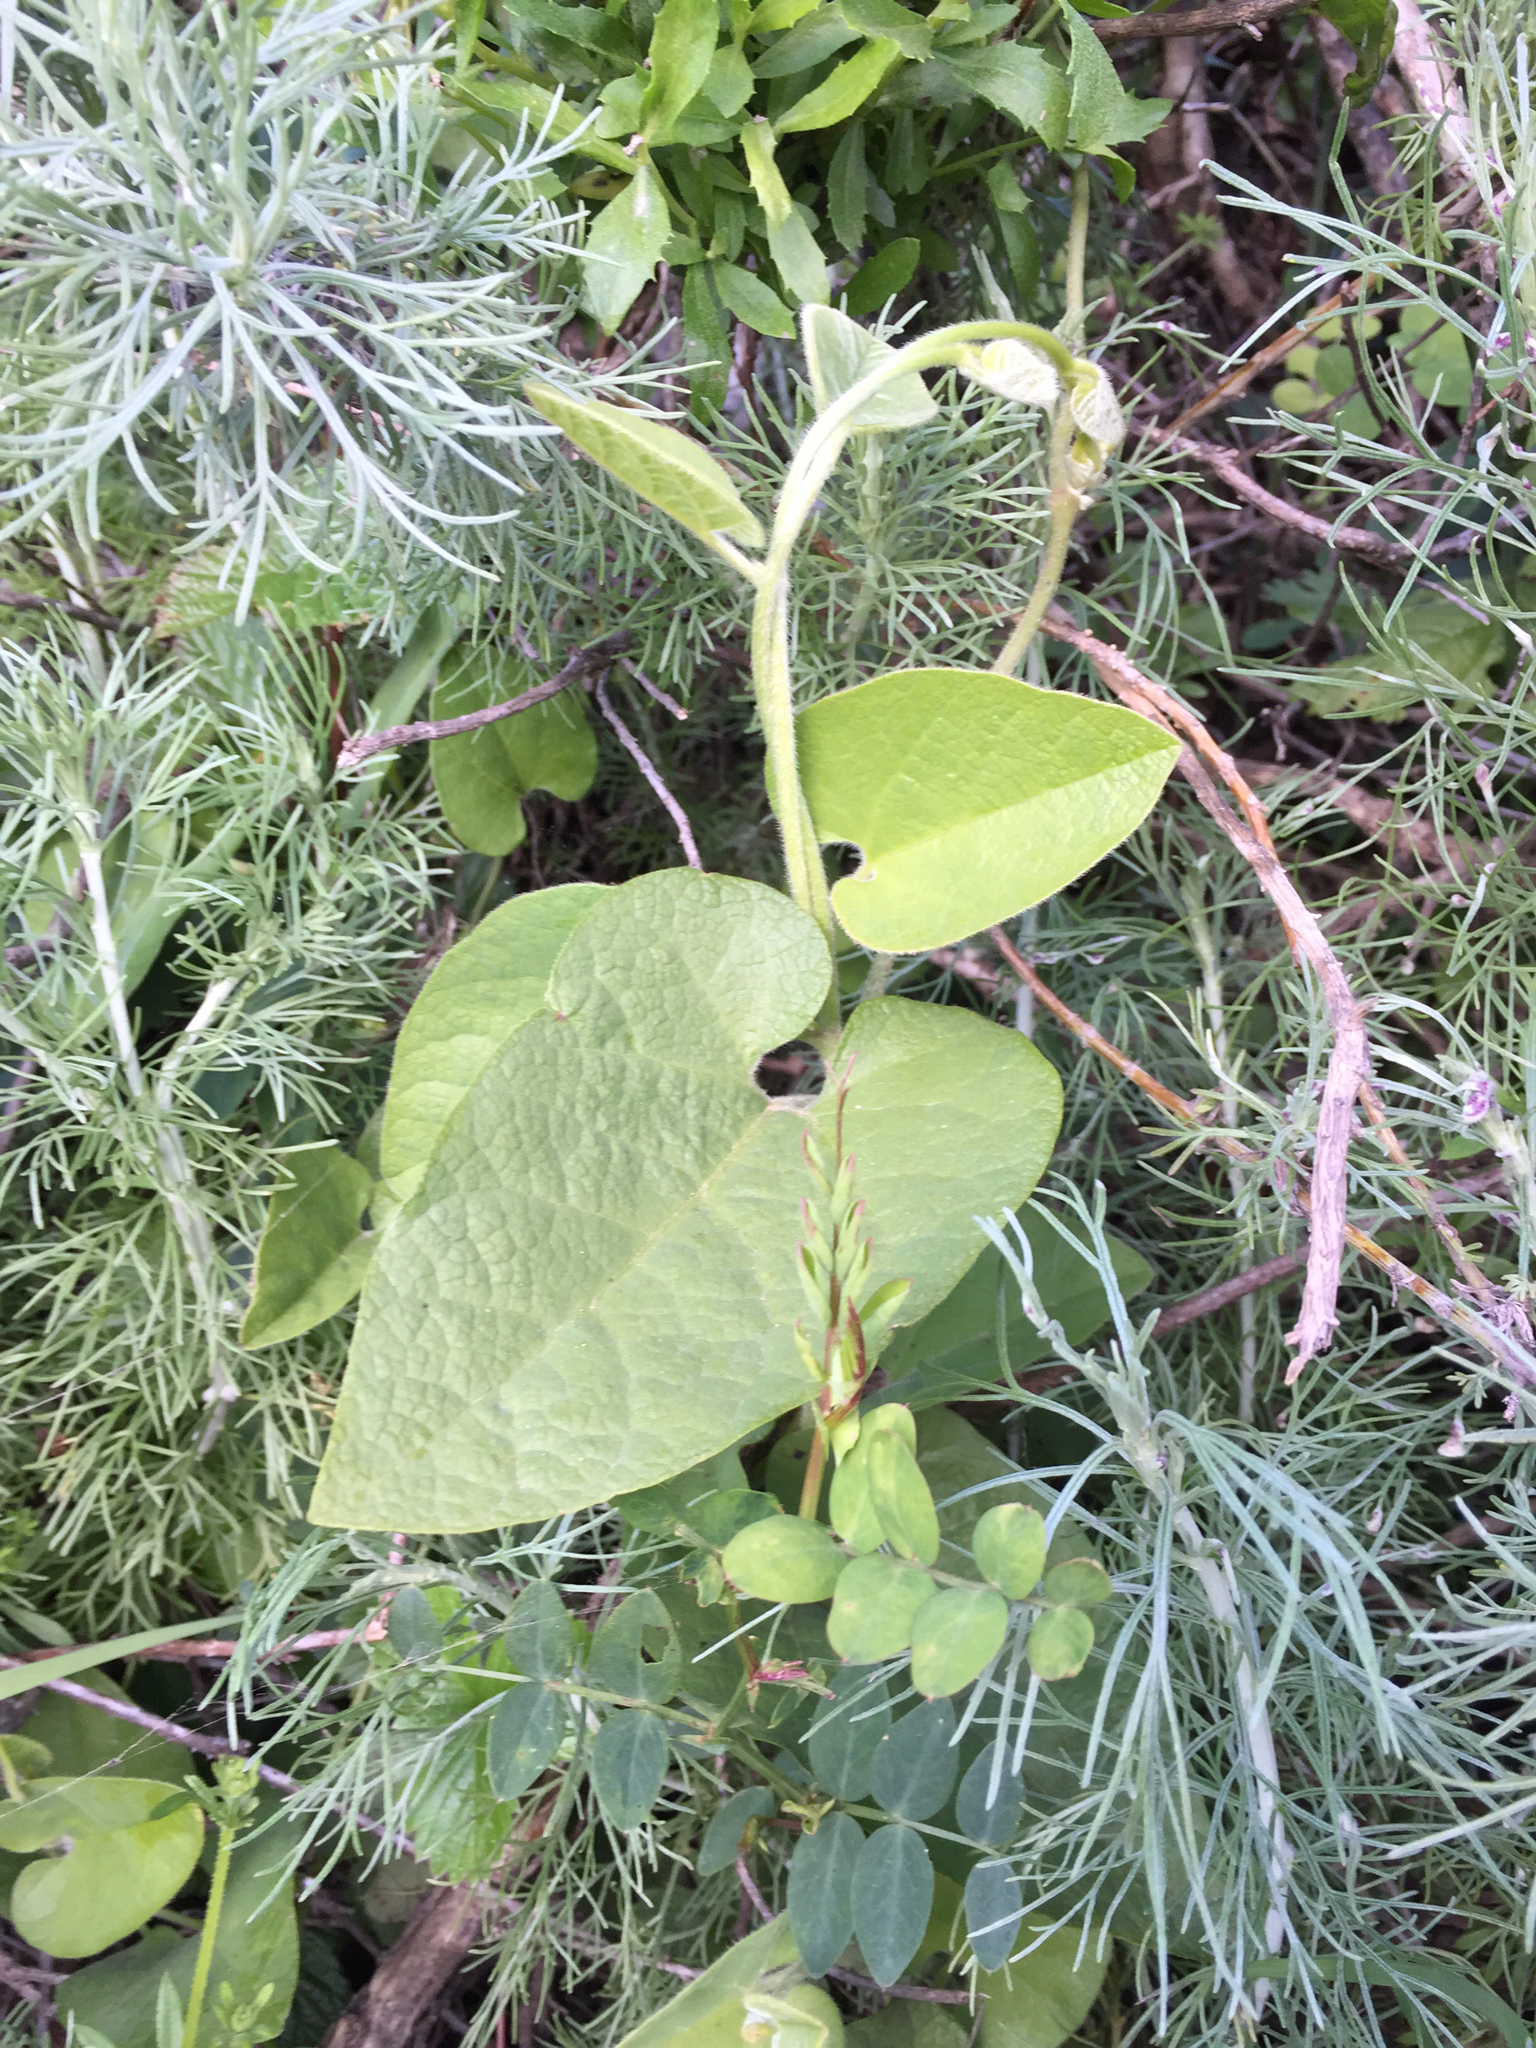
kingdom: Plantae
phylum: Tracheophyta
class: Magnoliopsida
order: Piperales
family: Aristolochiaceae
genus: Isotrema
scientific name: Isotrema californicum
